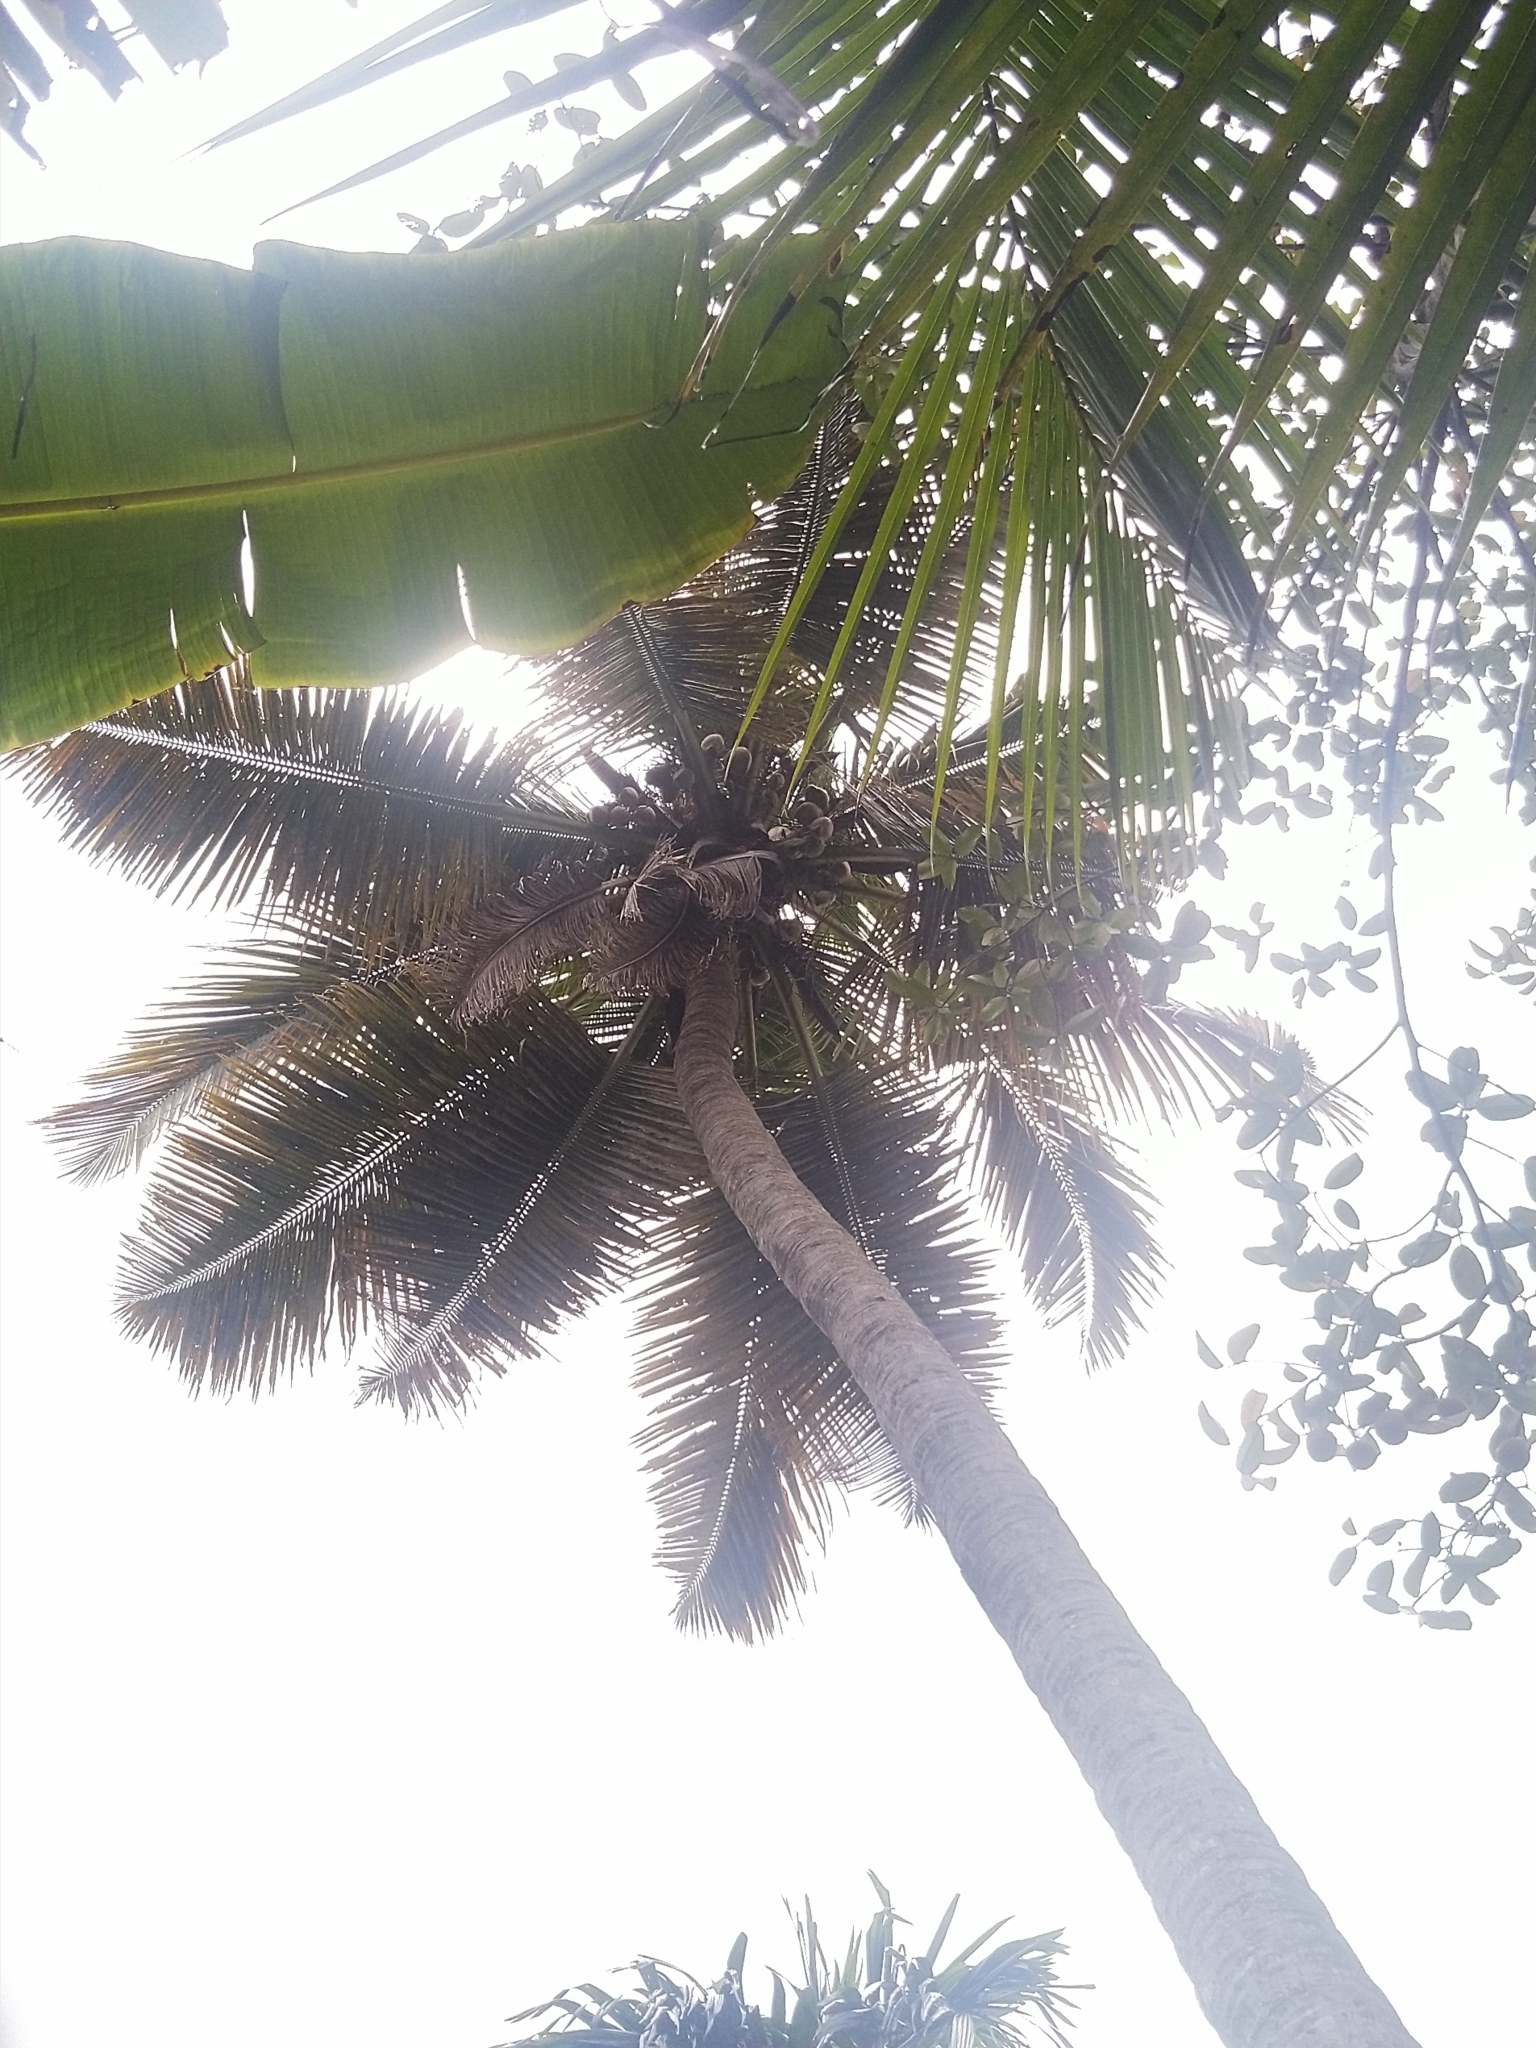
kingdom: Plantae
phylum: Tracheophyta
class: Liliopsida
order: Arecales
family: Arecaceae
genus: Cocos
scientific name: Cocos nucifera
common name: Coconut palm
